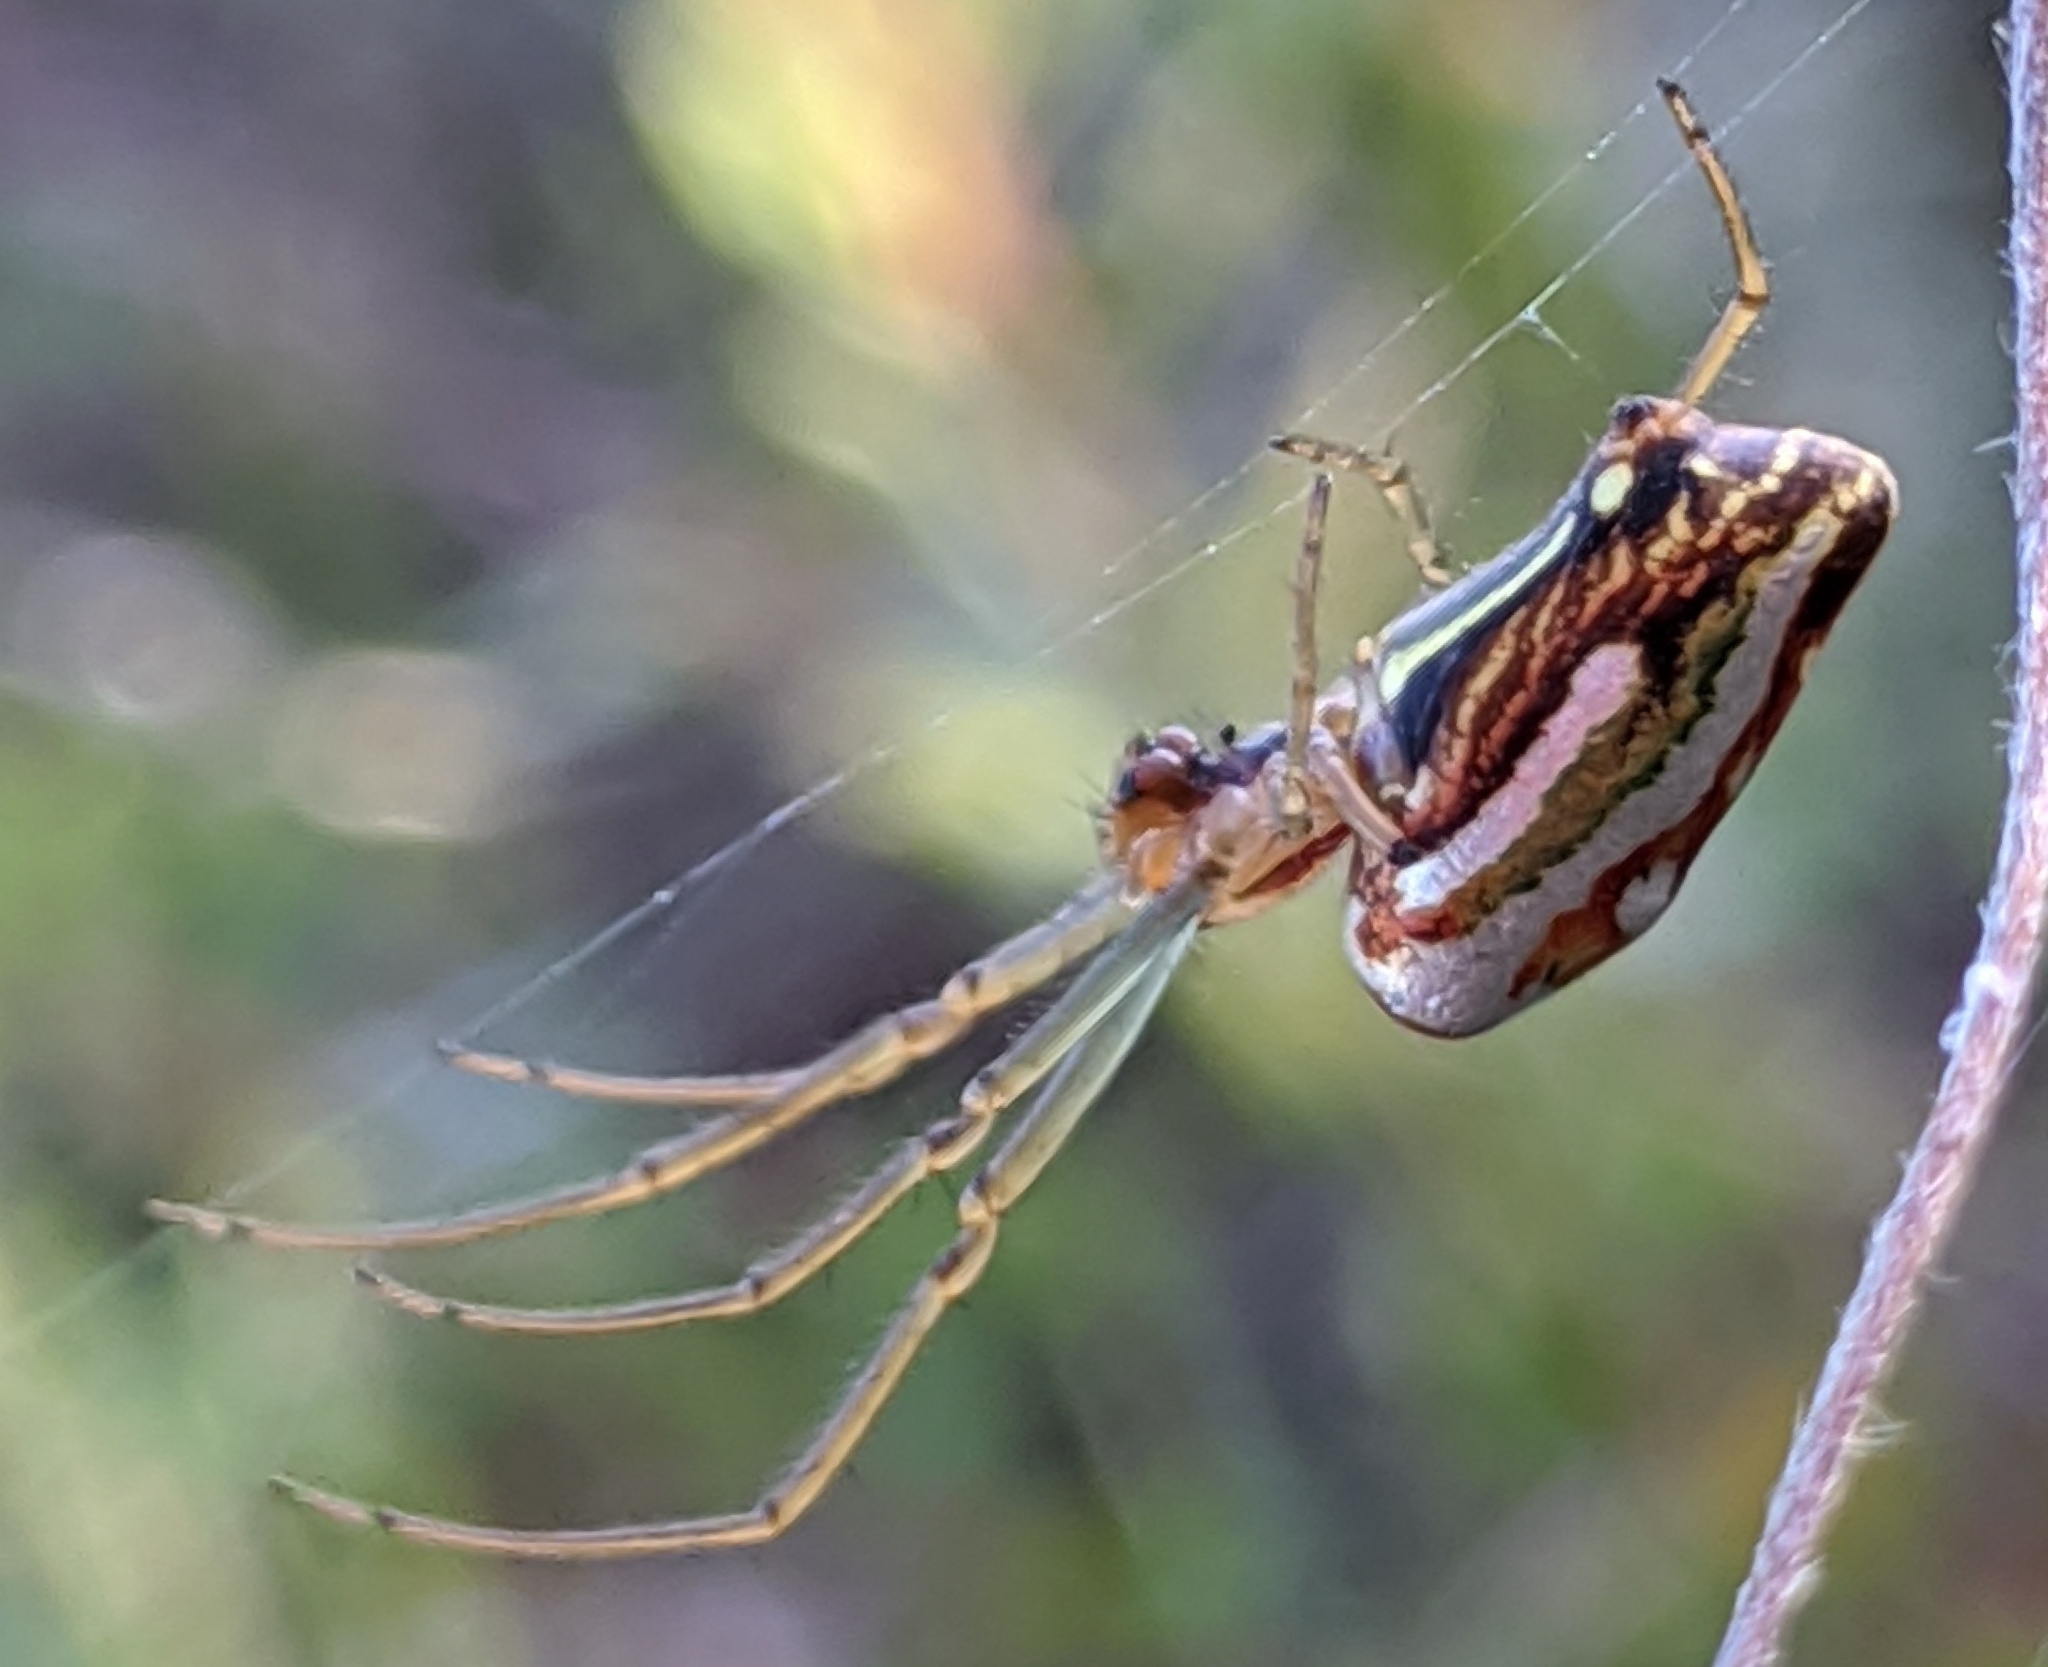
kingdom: Animalia
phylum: Arthropoda
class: Arachnida
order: Araneae
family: Tetragnathidae
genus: Leucauge
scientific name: Leucauge festiva
